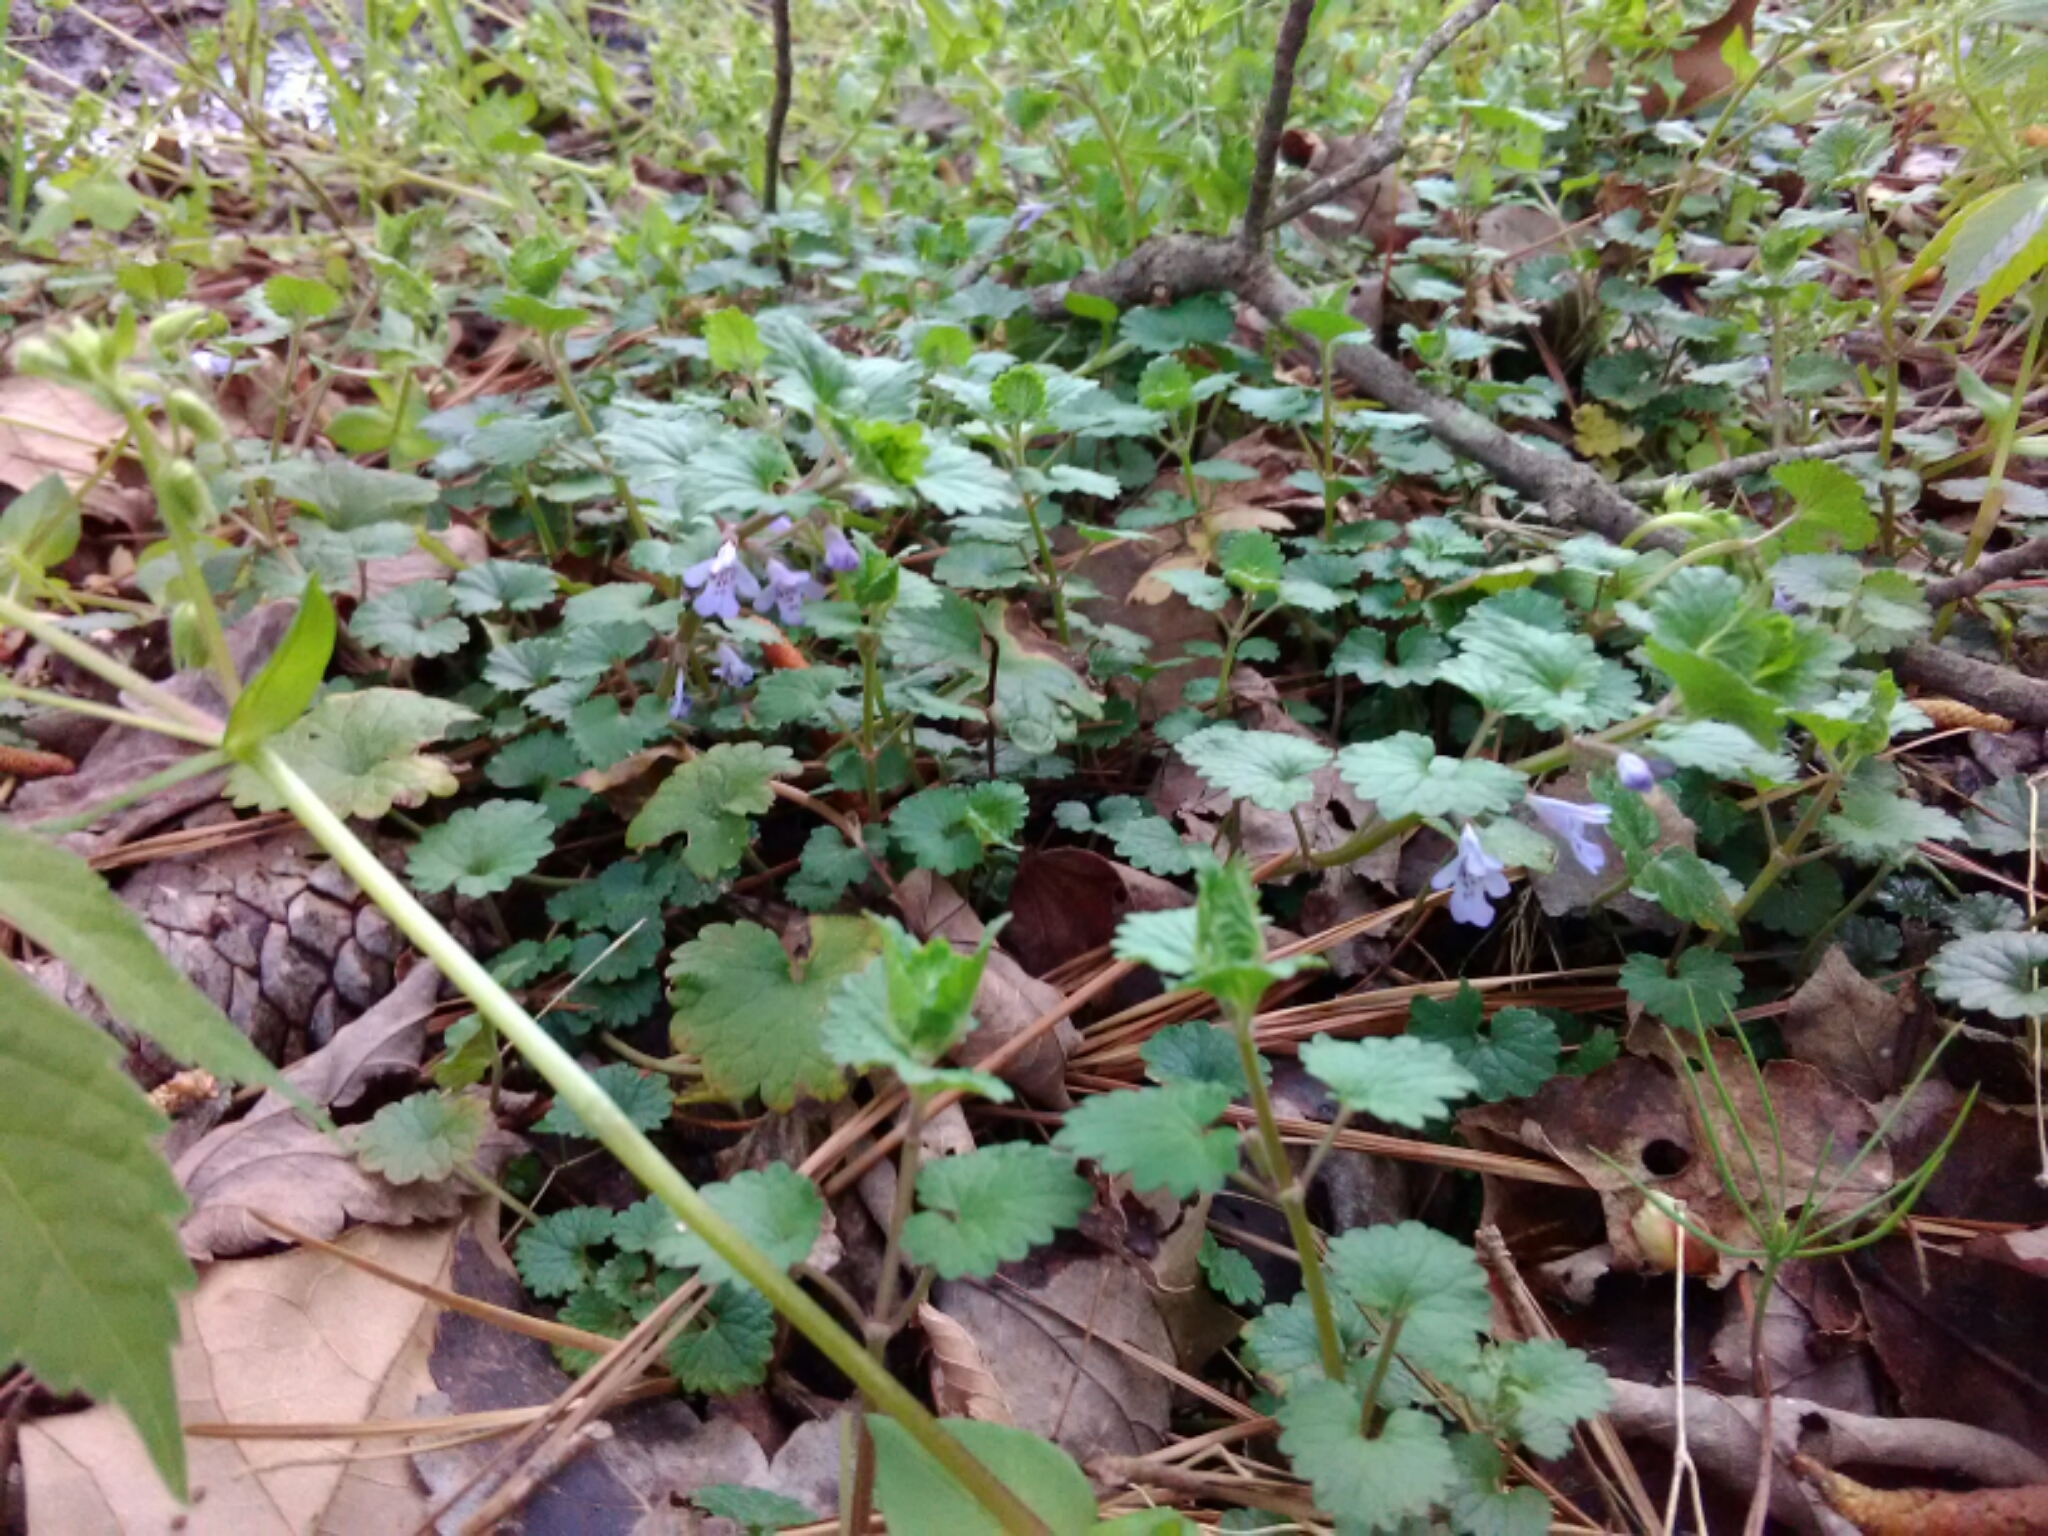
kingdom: Plantae
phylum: Tracheophyta
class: Magnoliopsida
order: Lamiales
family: Lamiaceae
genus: Glechoma
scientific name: Glechoma hederacea
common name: Ground ivy
